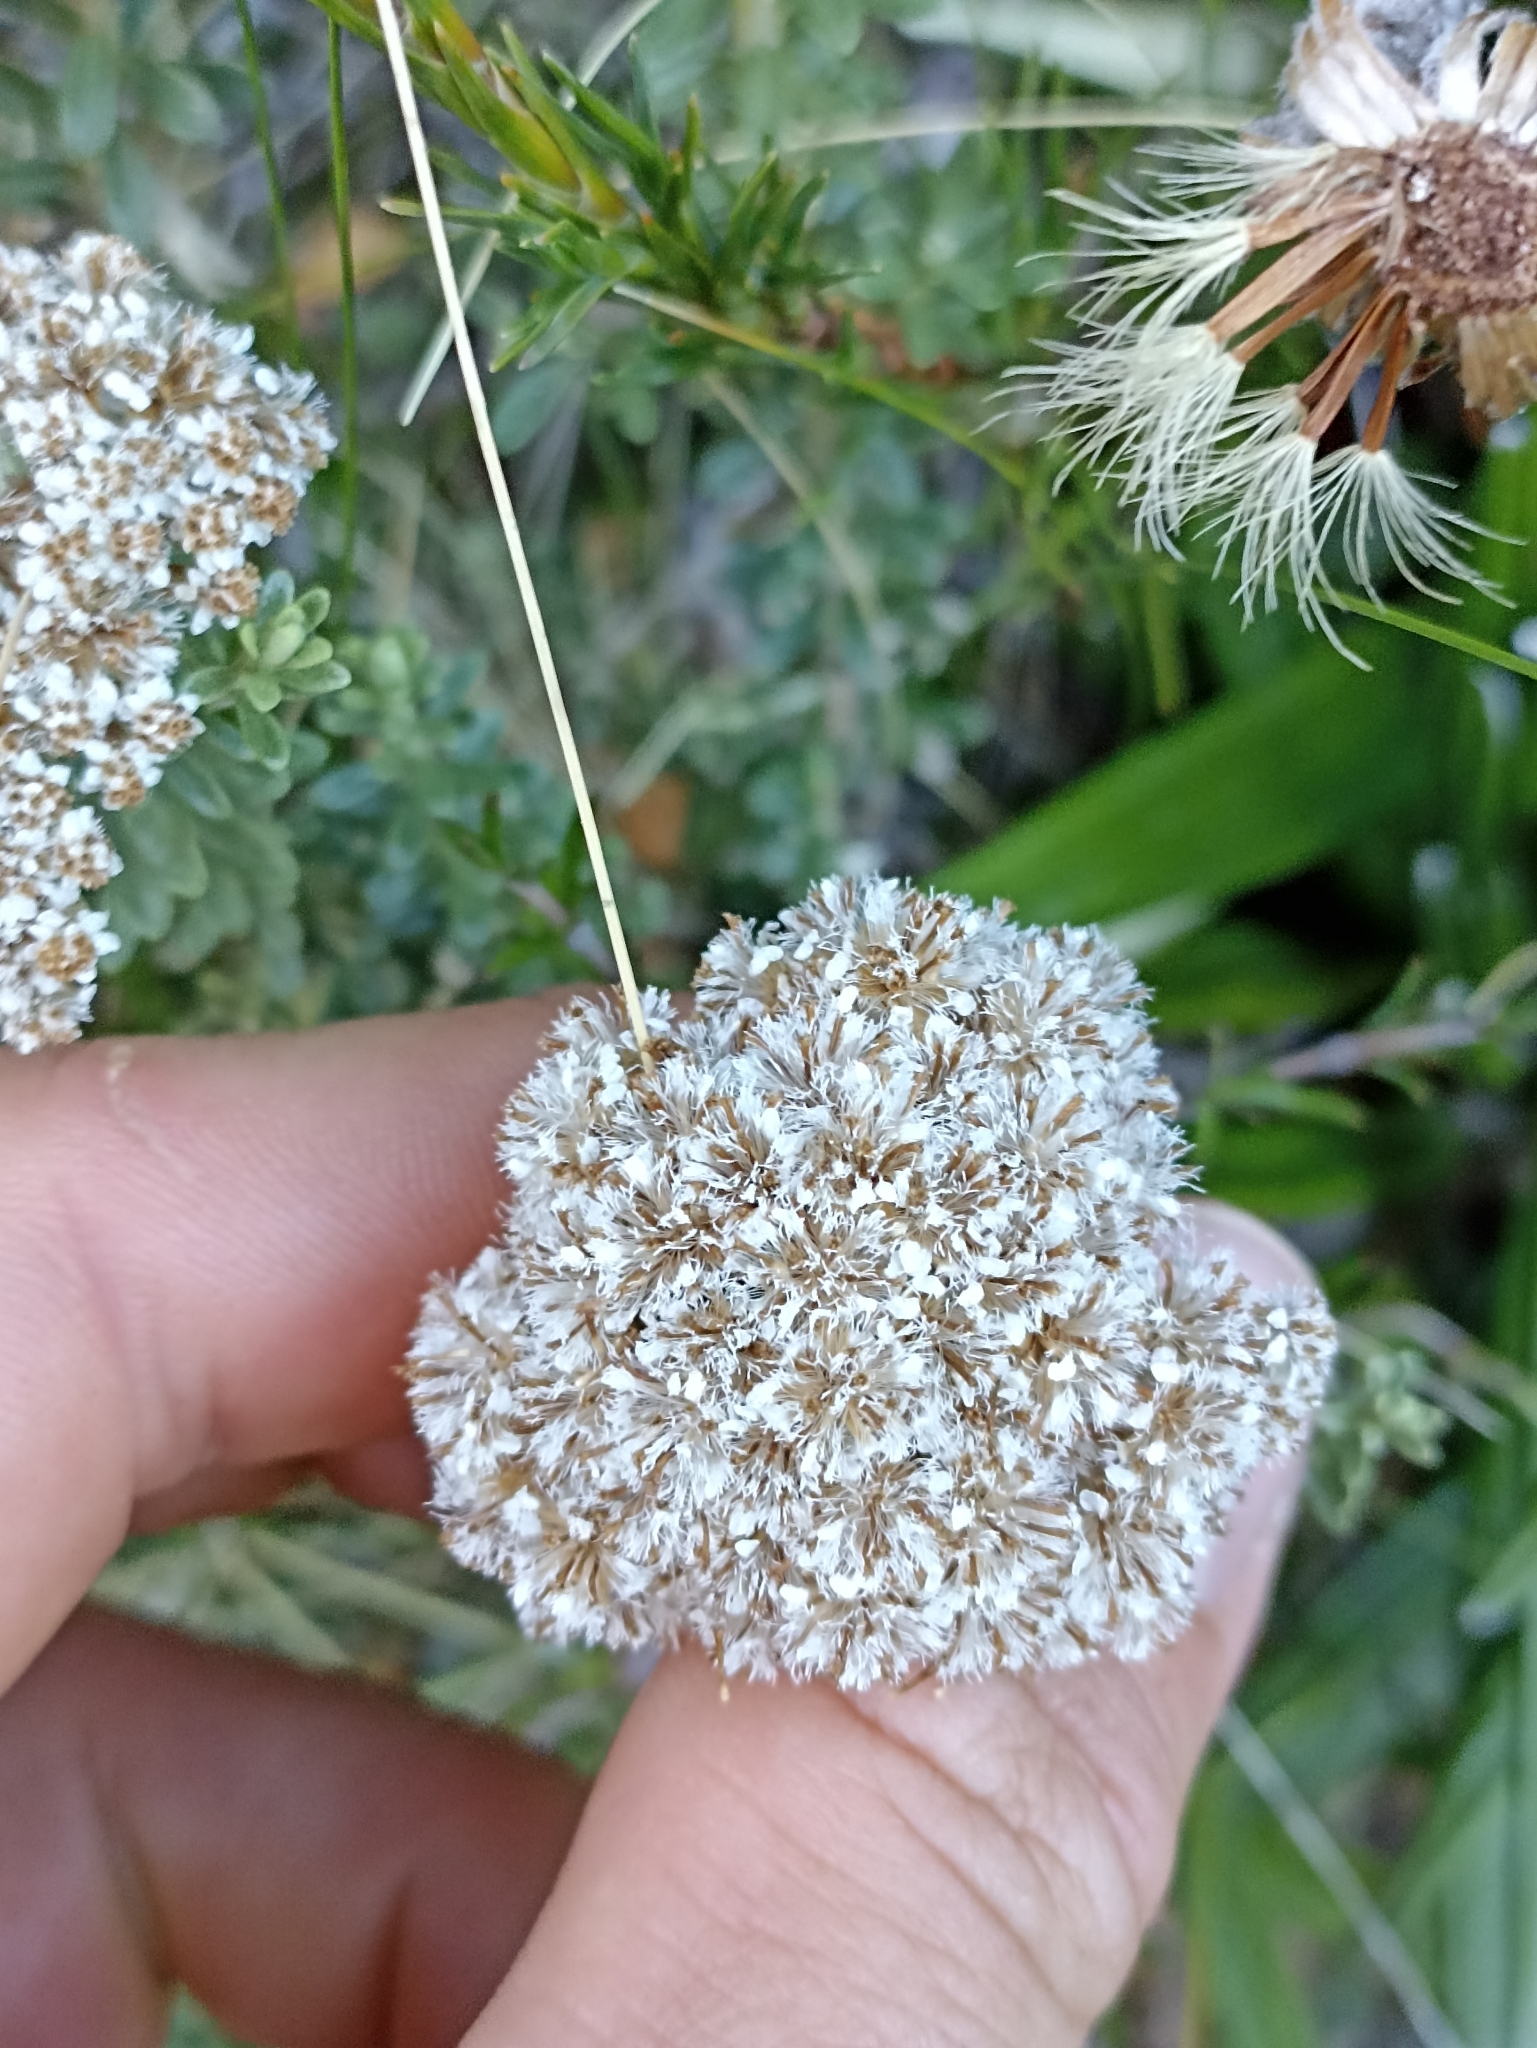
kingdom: Plantae
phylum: Tracheophyta
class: Magnoliopsida
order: Asterales
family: Asteraceae
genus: Ozothamnus
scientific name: Ozothamnus leptophyllus
